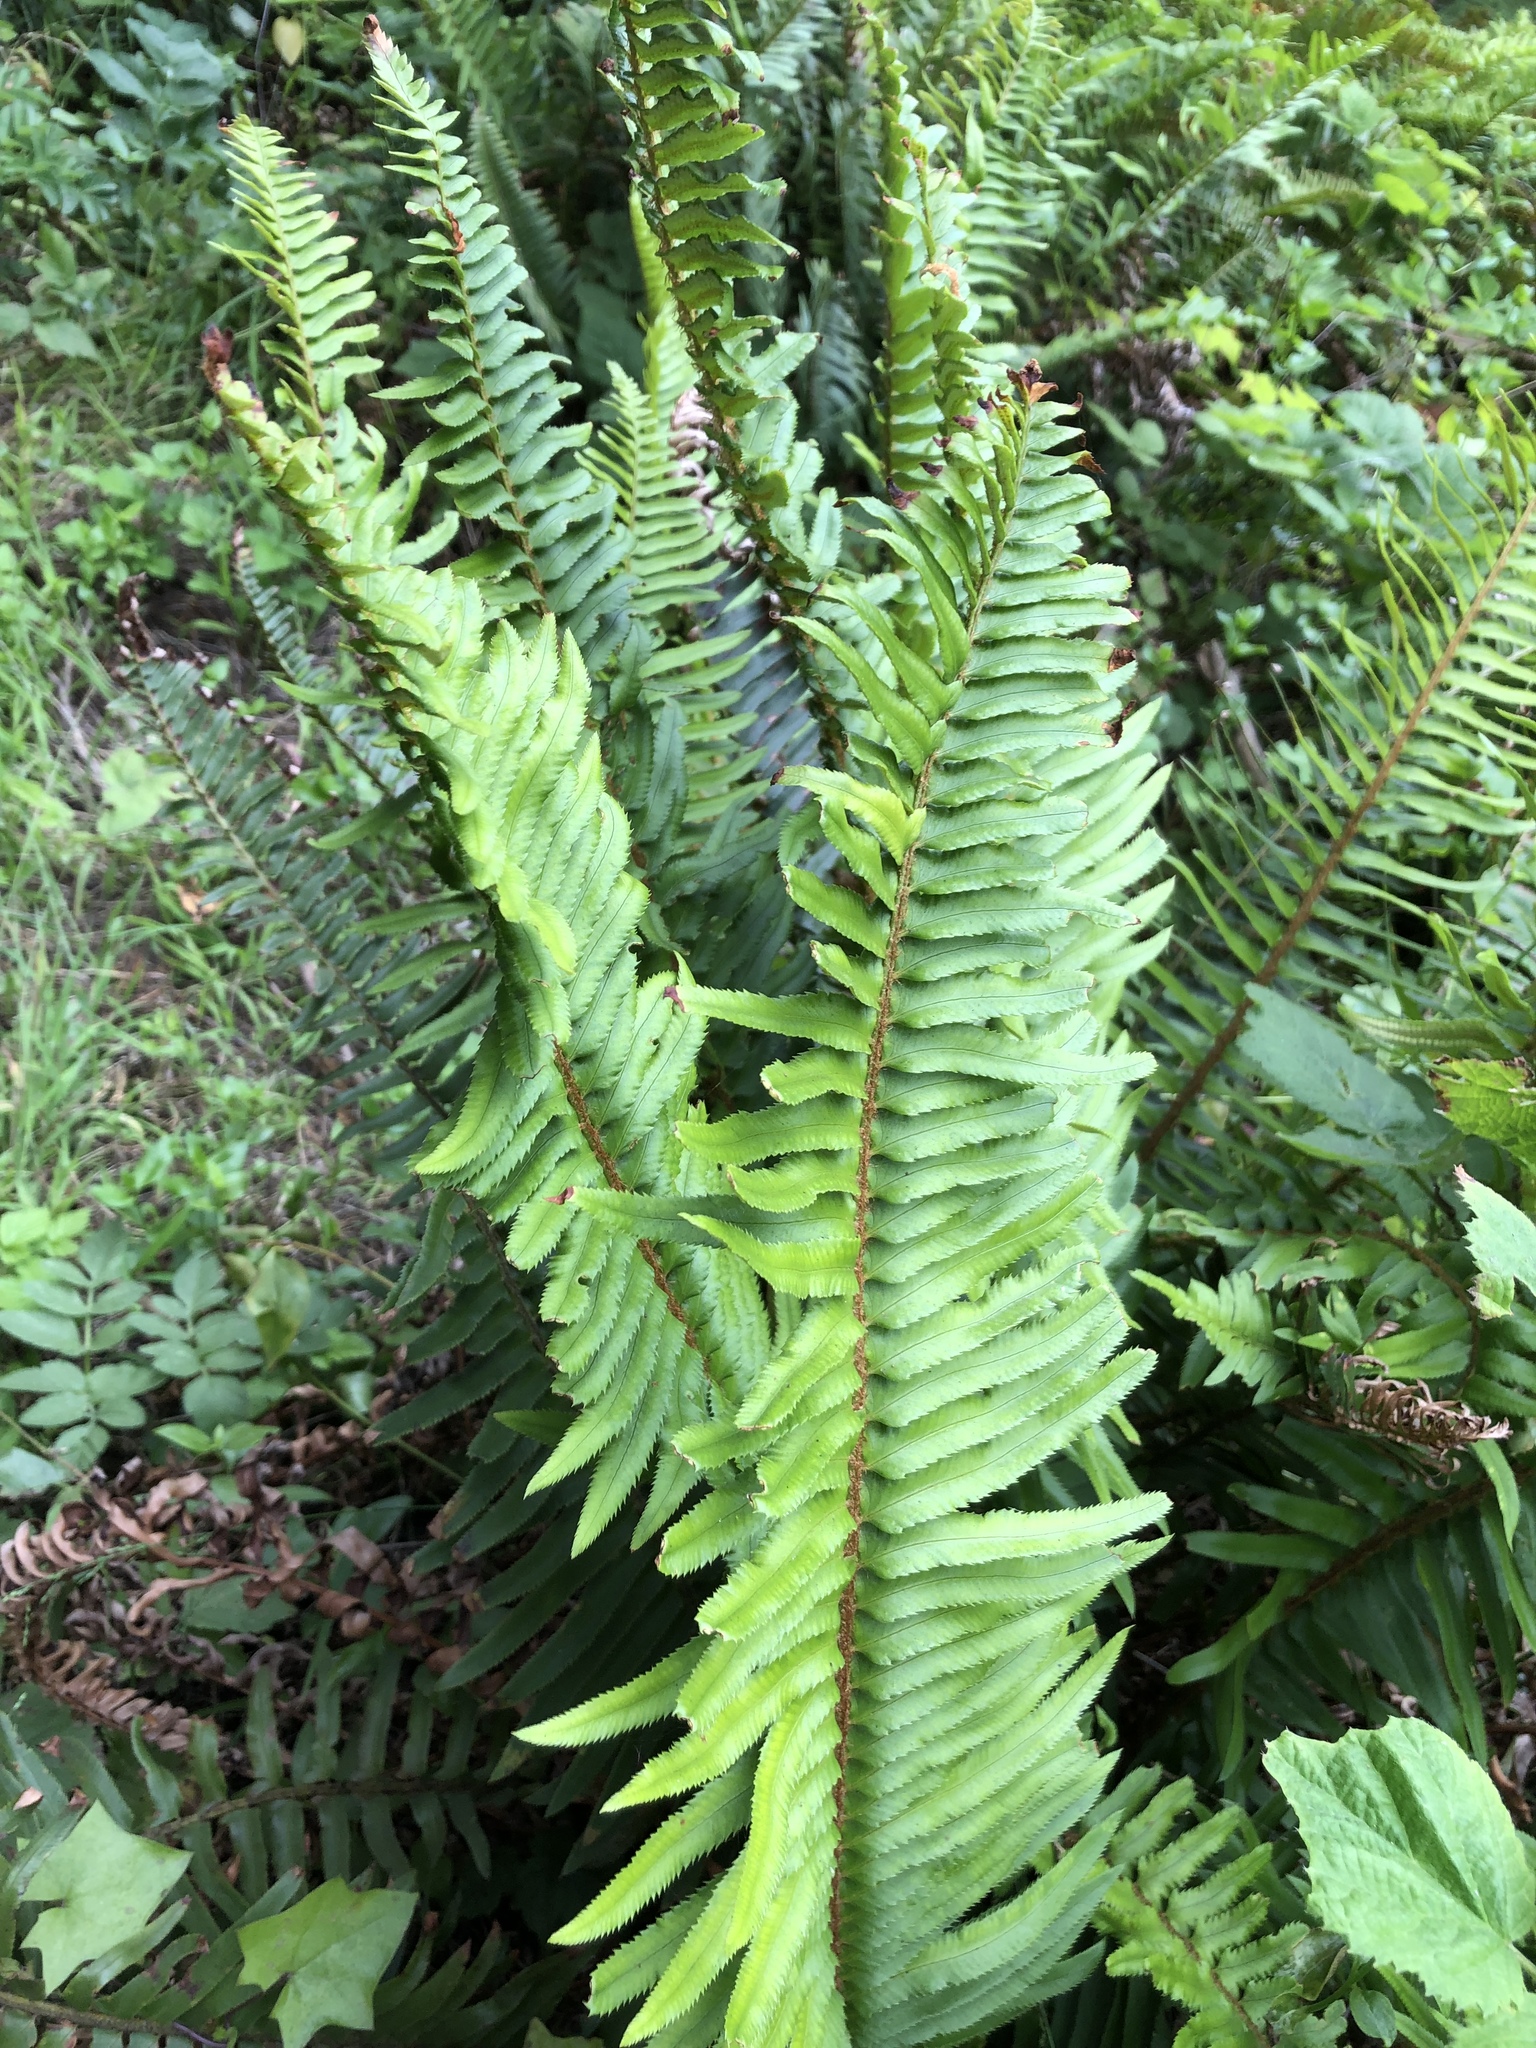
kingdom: Plantae
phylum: Tracheophyta
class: Polypodiopsida
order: Polypodiales
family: Dryopteridaceae
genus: Polystichum
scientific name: Polystichum munitum
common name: Western sword-fern
